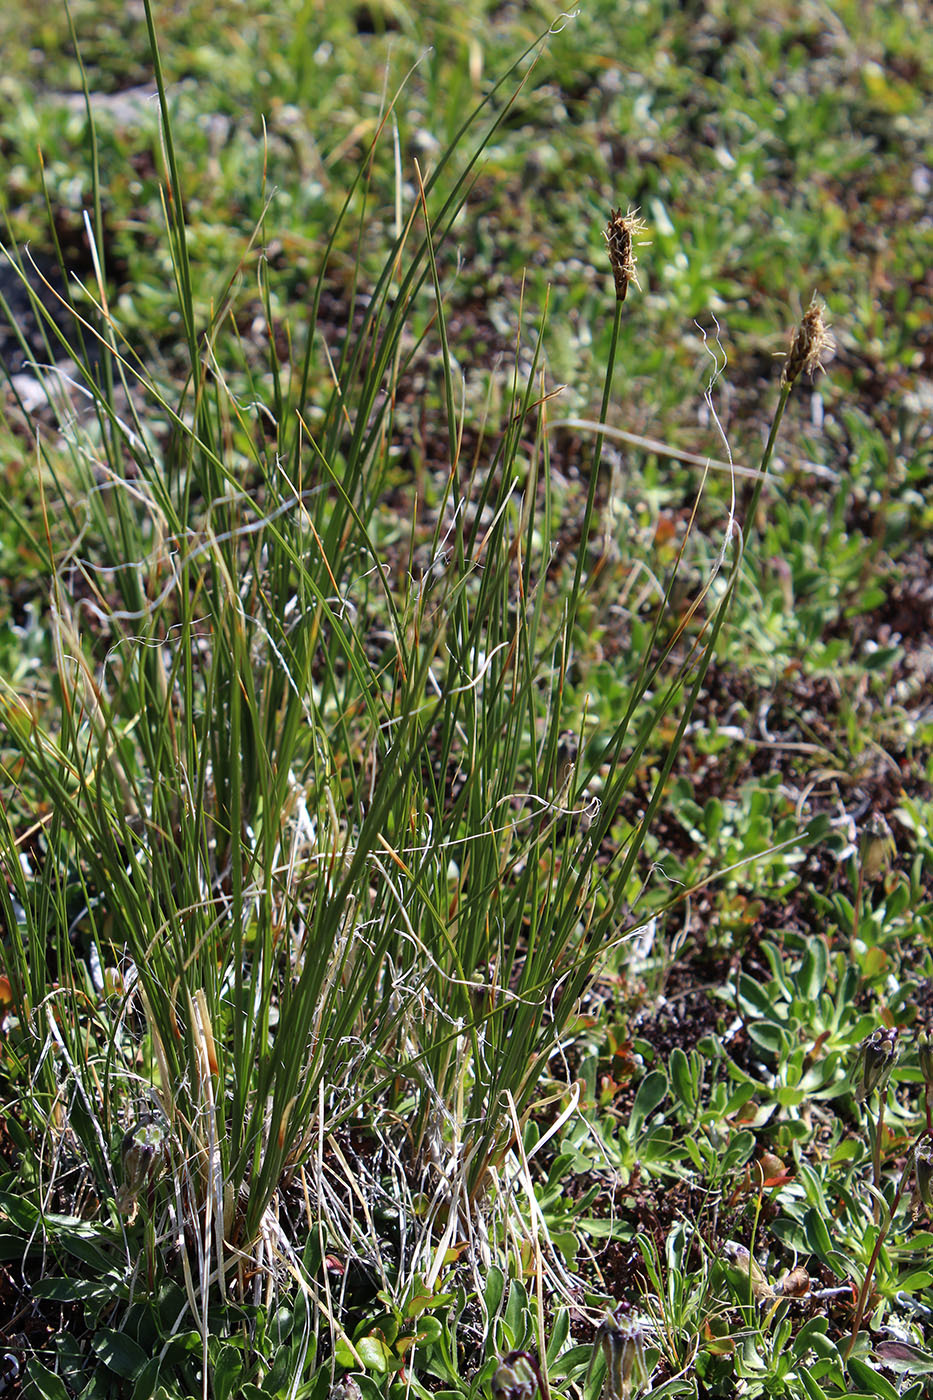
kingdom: Plantae
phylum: Tracheophyta
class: Liliopsida
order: Poales
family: Cyperaceae
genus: Carex
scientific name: Carex capillifolia
